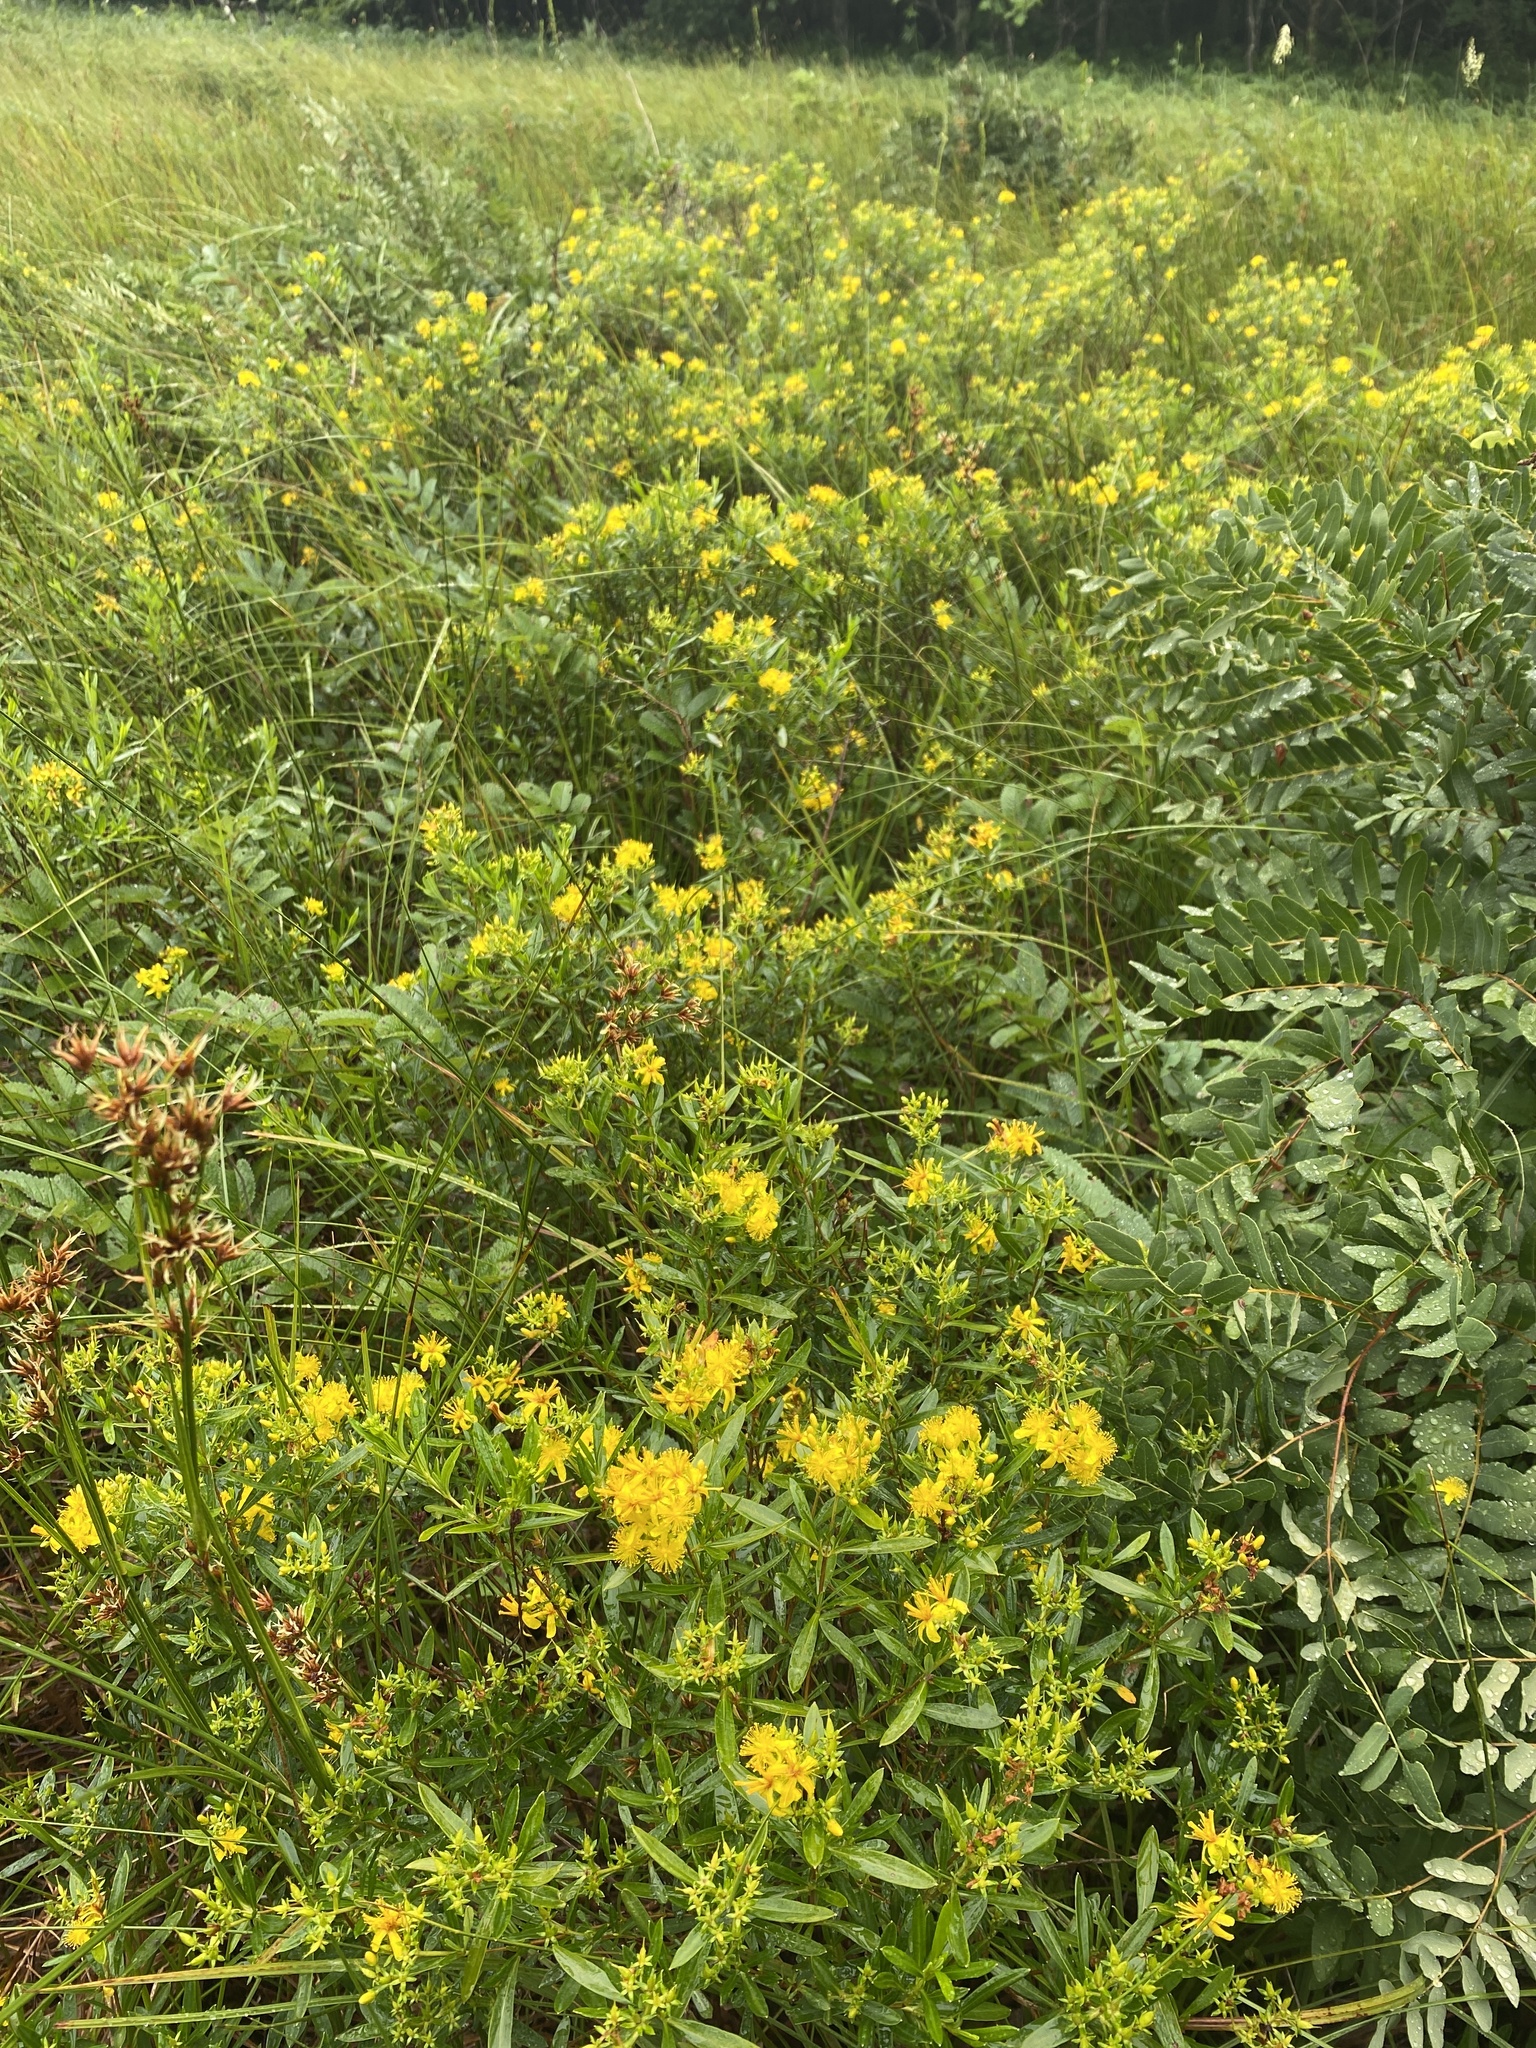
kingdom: Plantae
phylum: Tracheophyta
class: Magnoliopsida
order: Malpighiales
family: Hypericaceae
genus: Hypericum
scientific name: Hypericum densiflorum
